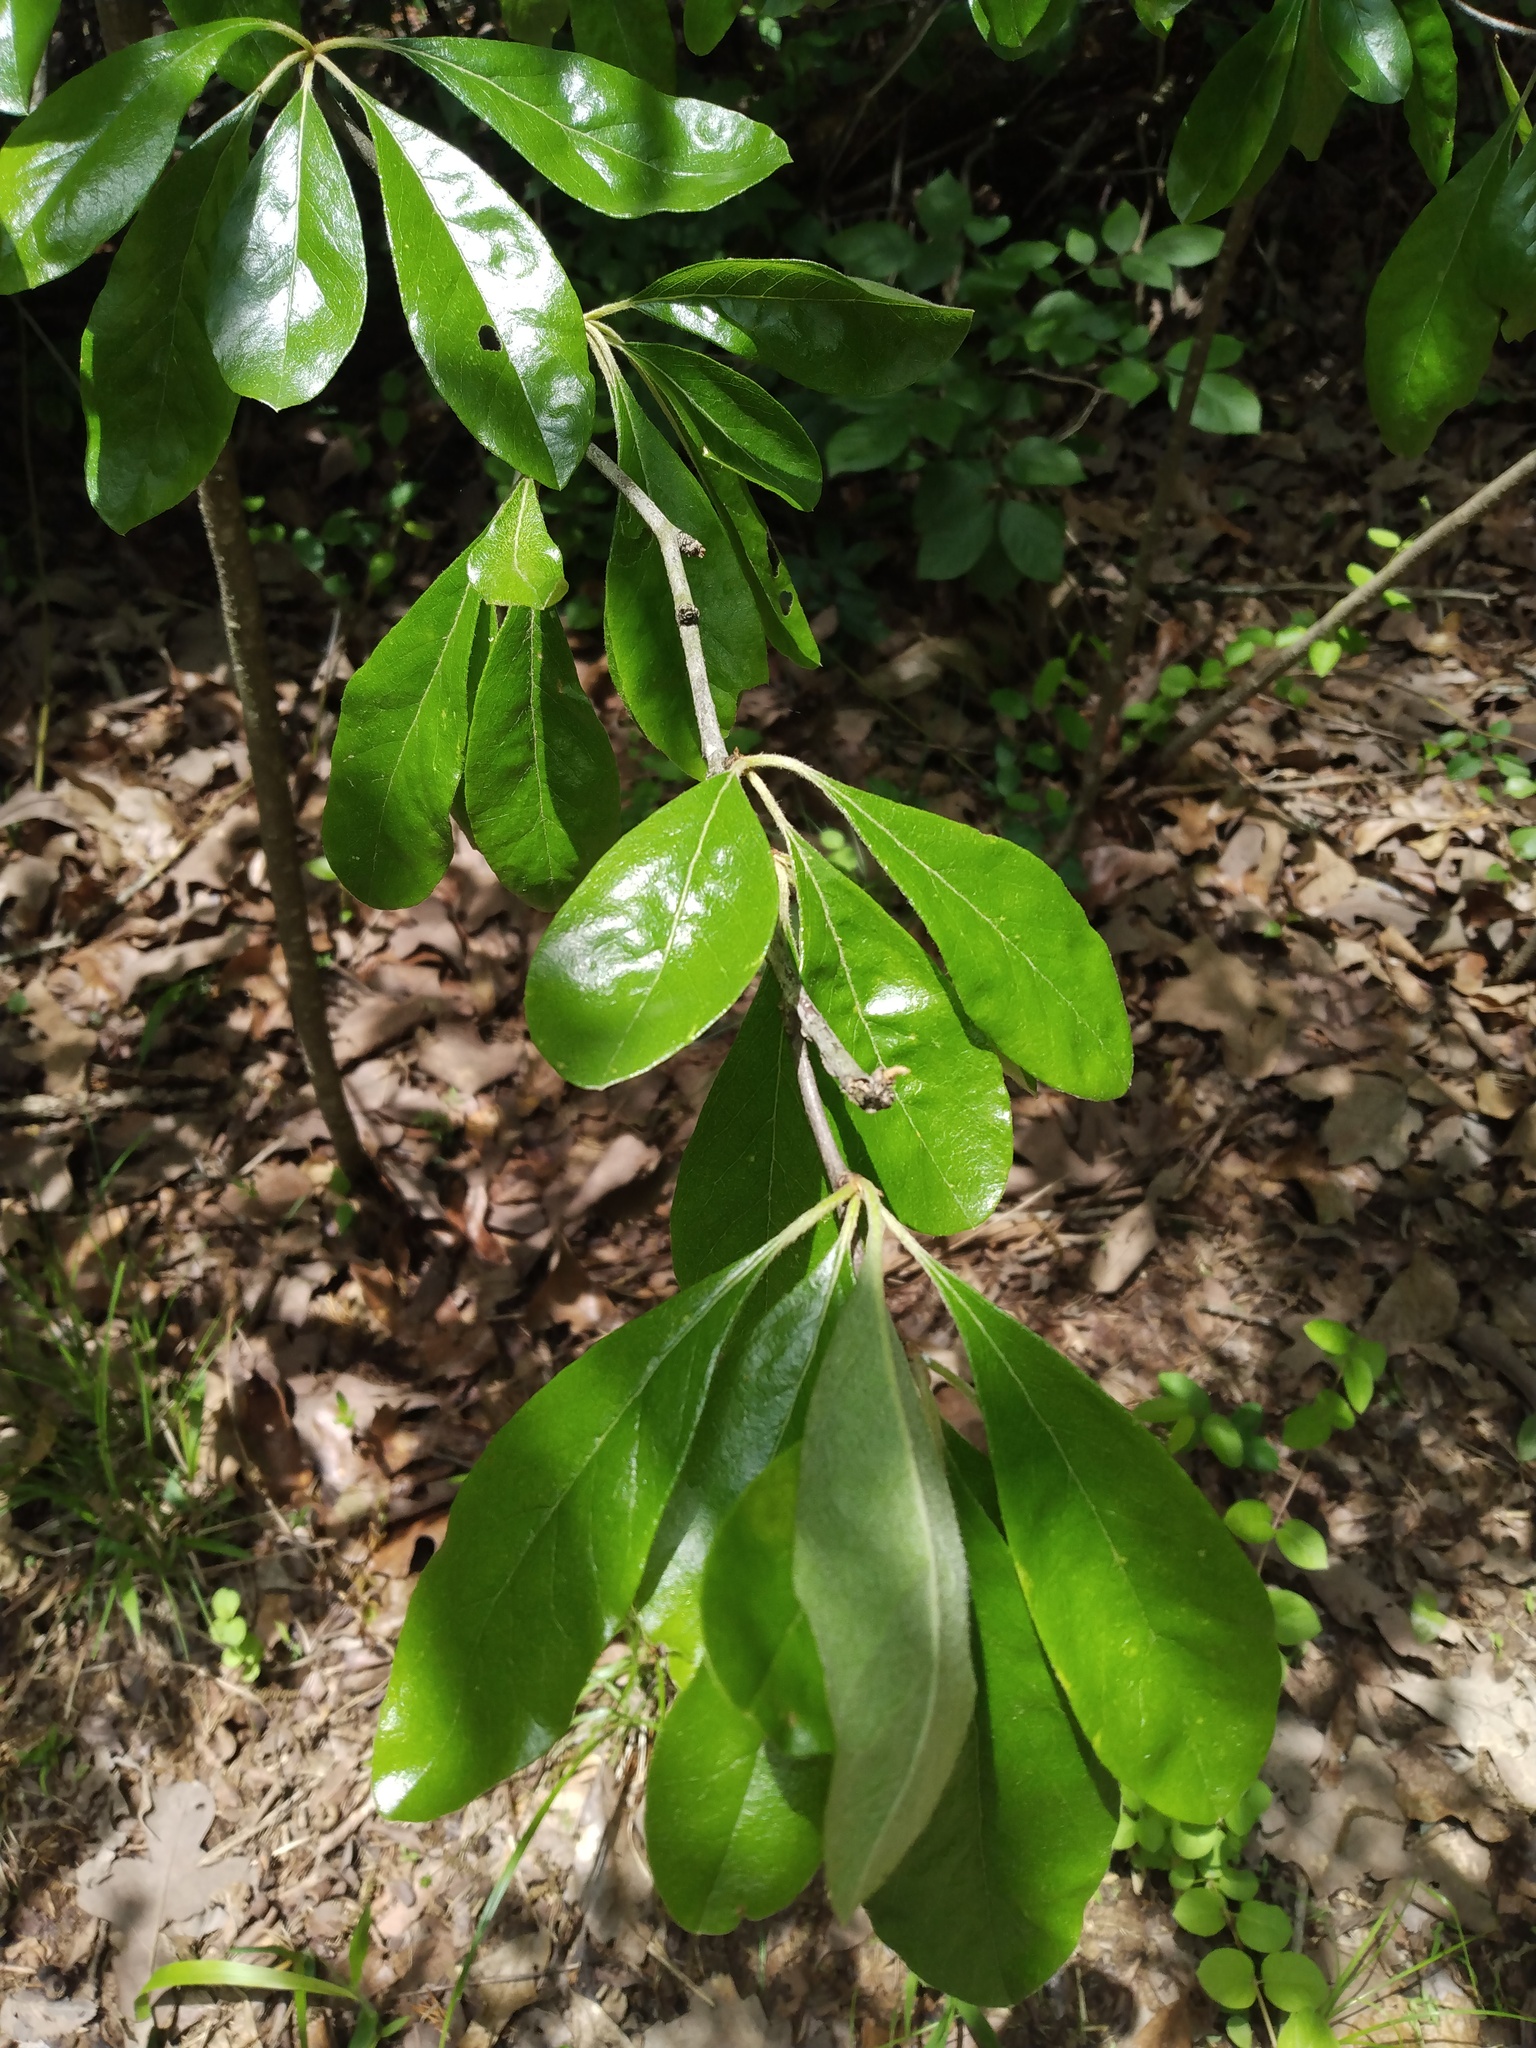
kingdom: Plantae
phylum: Tracheophyta
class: Magnoliopsida
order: Ericales
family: Sapotaceae
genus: Sideroxylon
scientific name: Sideroxylon lanuginosum
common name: Chittamwood
